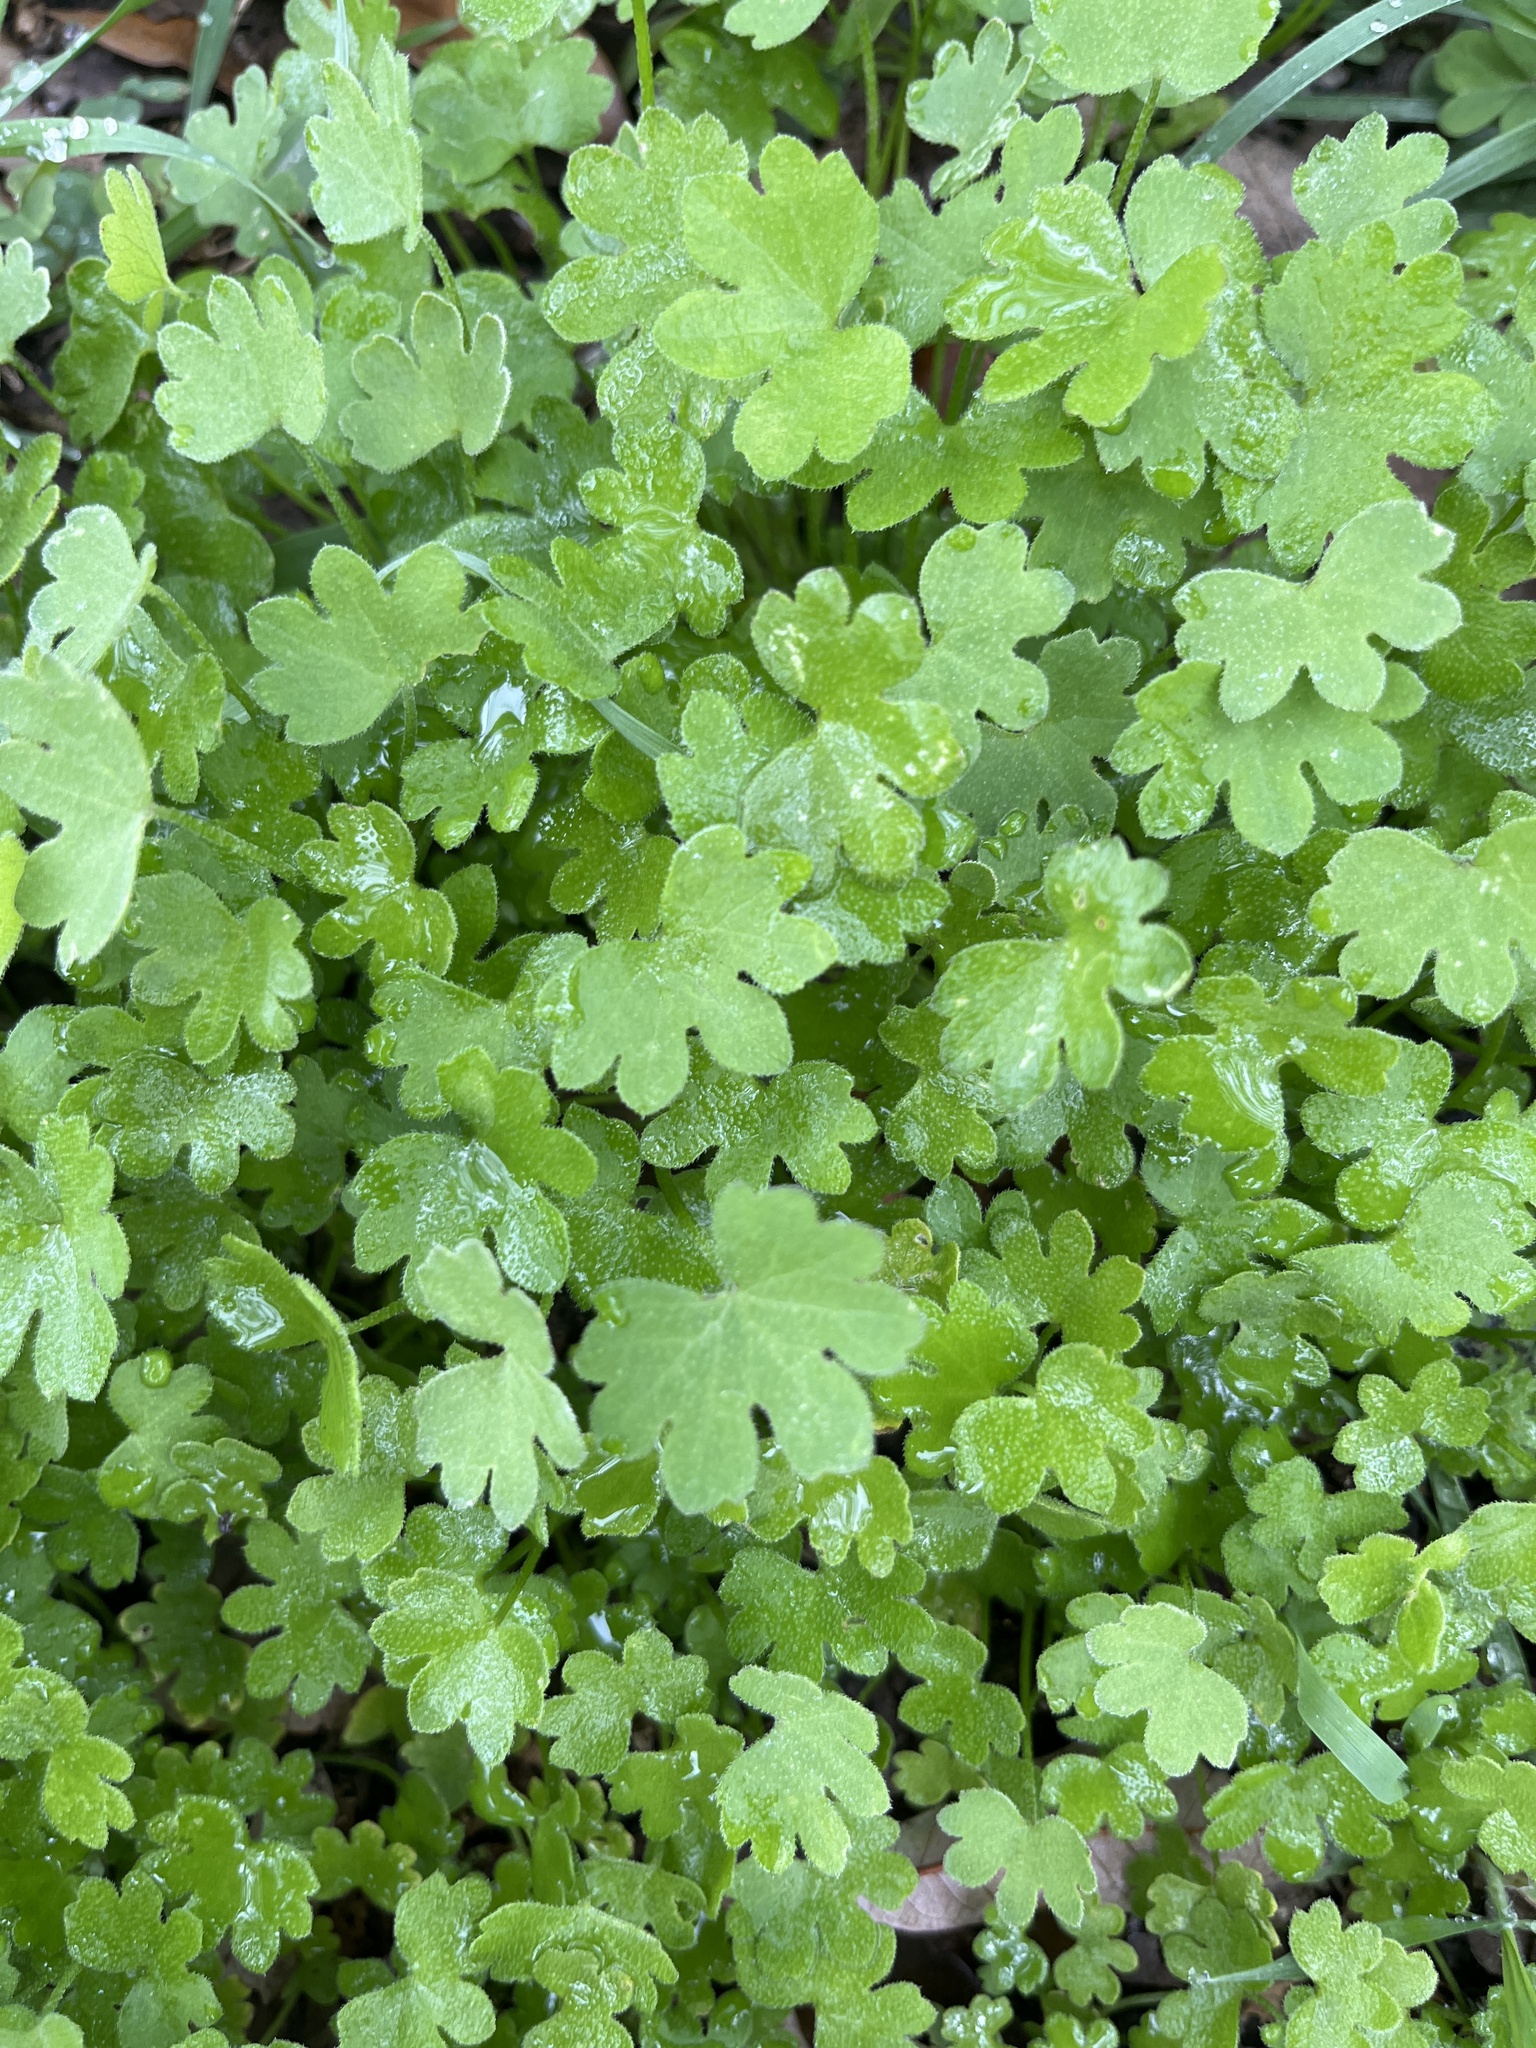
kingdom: Plantae
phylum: Tracheophyta
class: Magnoliopsida
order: Apiales
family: Apiaceae
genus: Bowlesia
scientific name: Bowlesia incana
